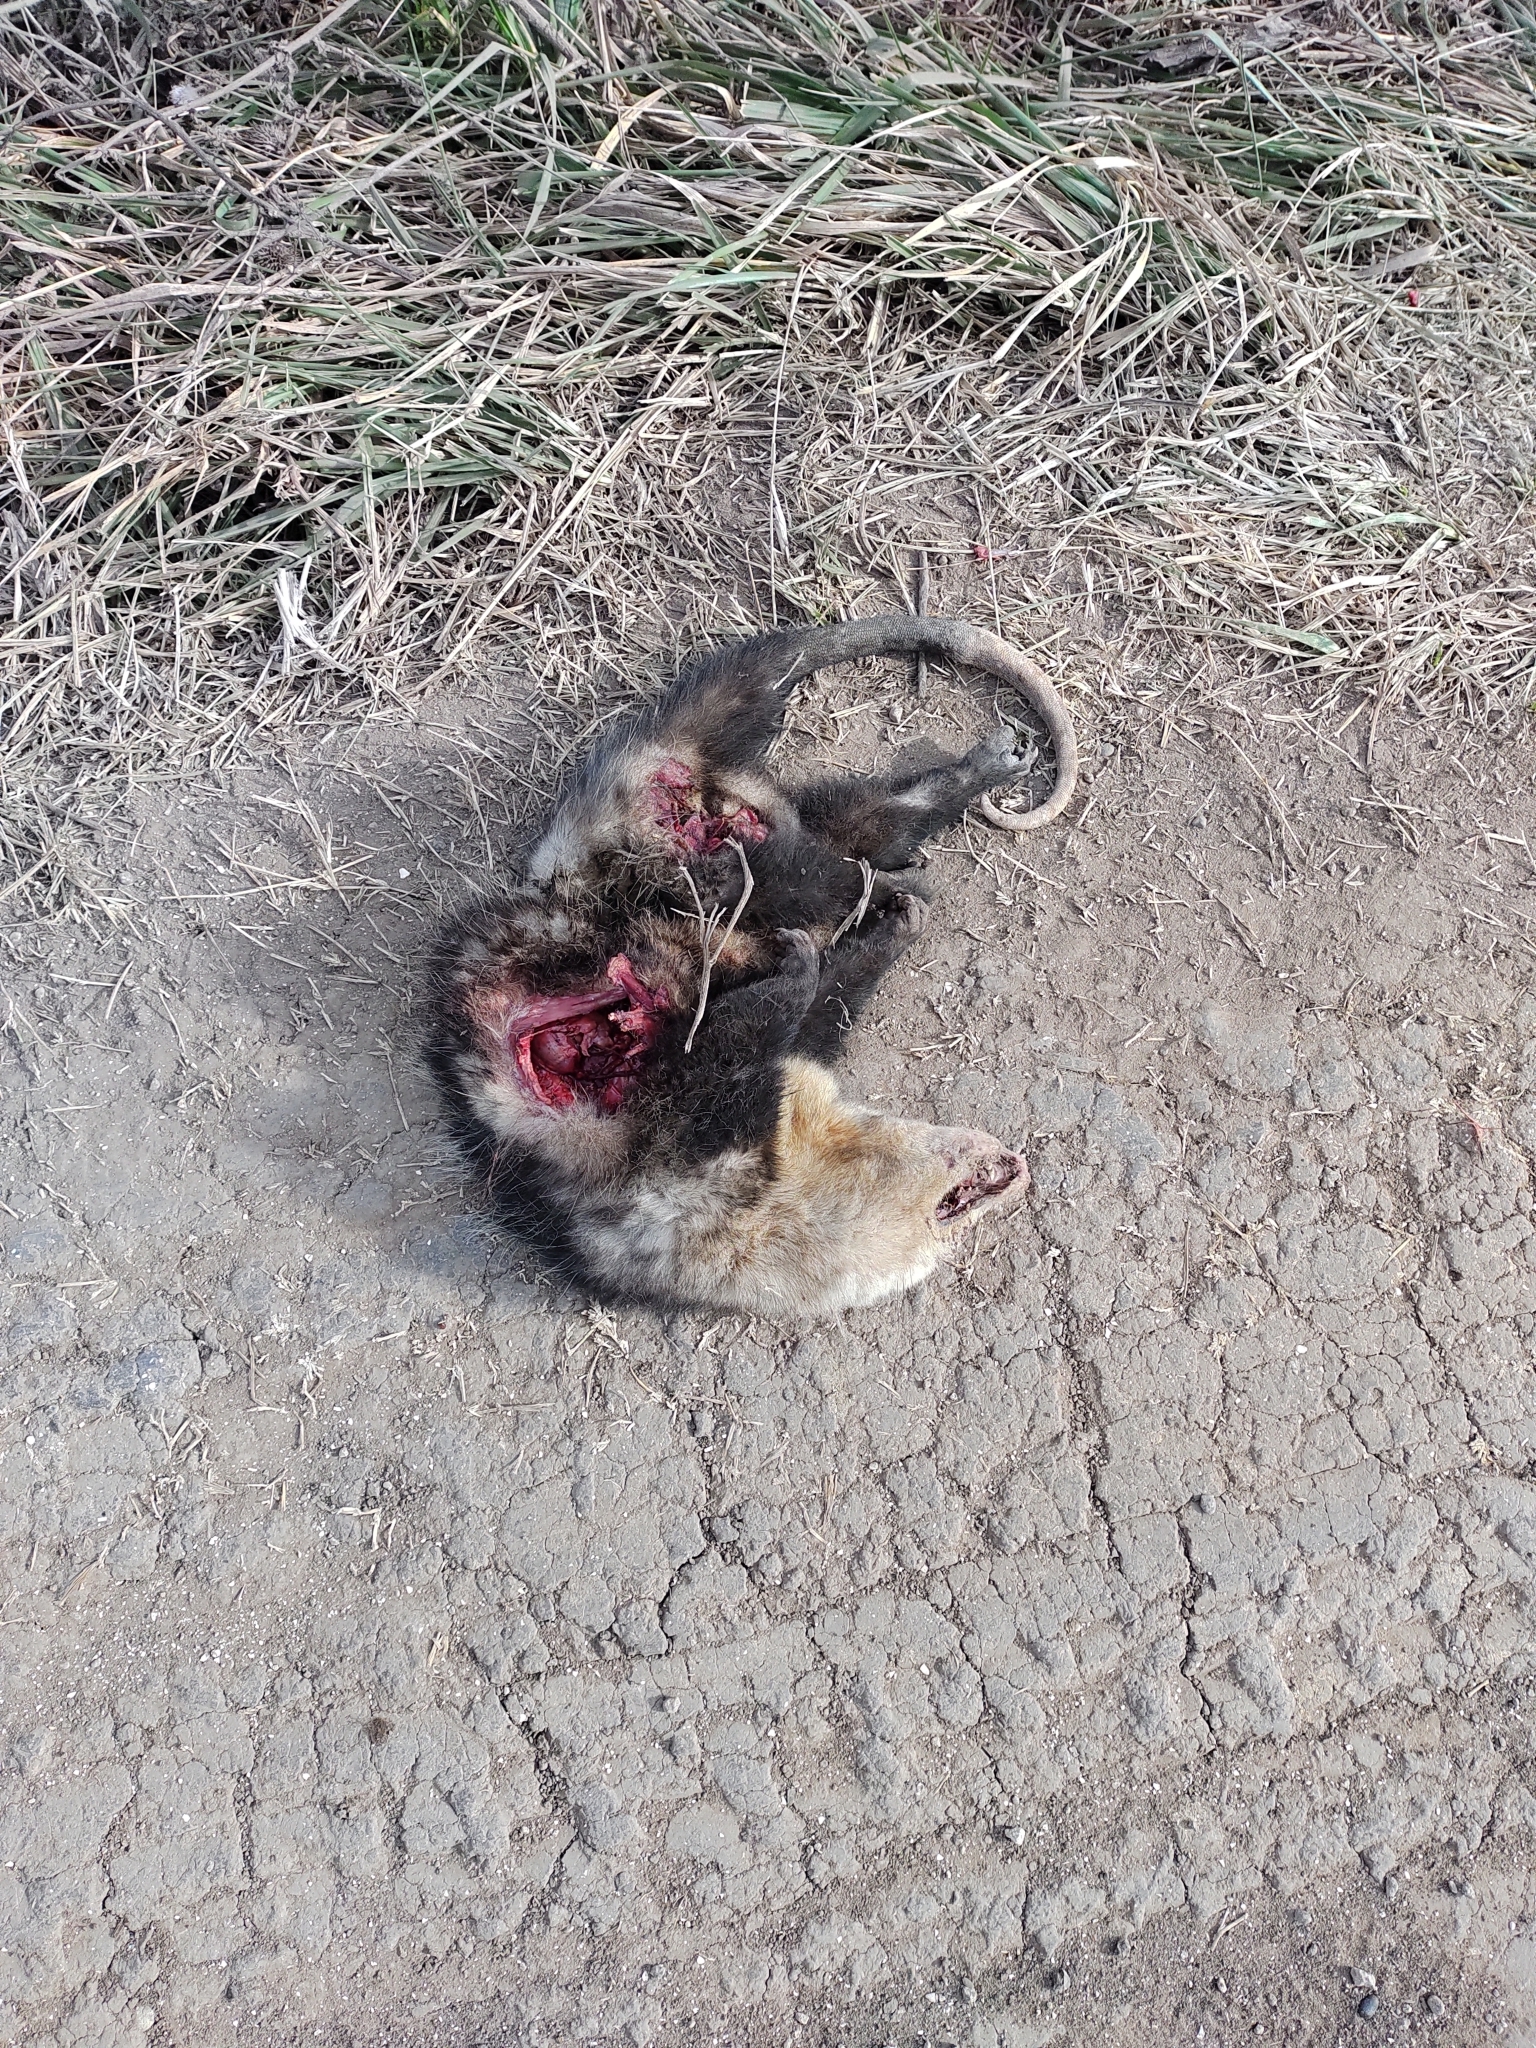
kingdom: Animalia
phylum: Chordata
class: Mammalia
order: Didelphimorphia
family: Didelphidae
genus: Didelphis
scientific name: Didelphis albiventris
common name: White-eared opossum
